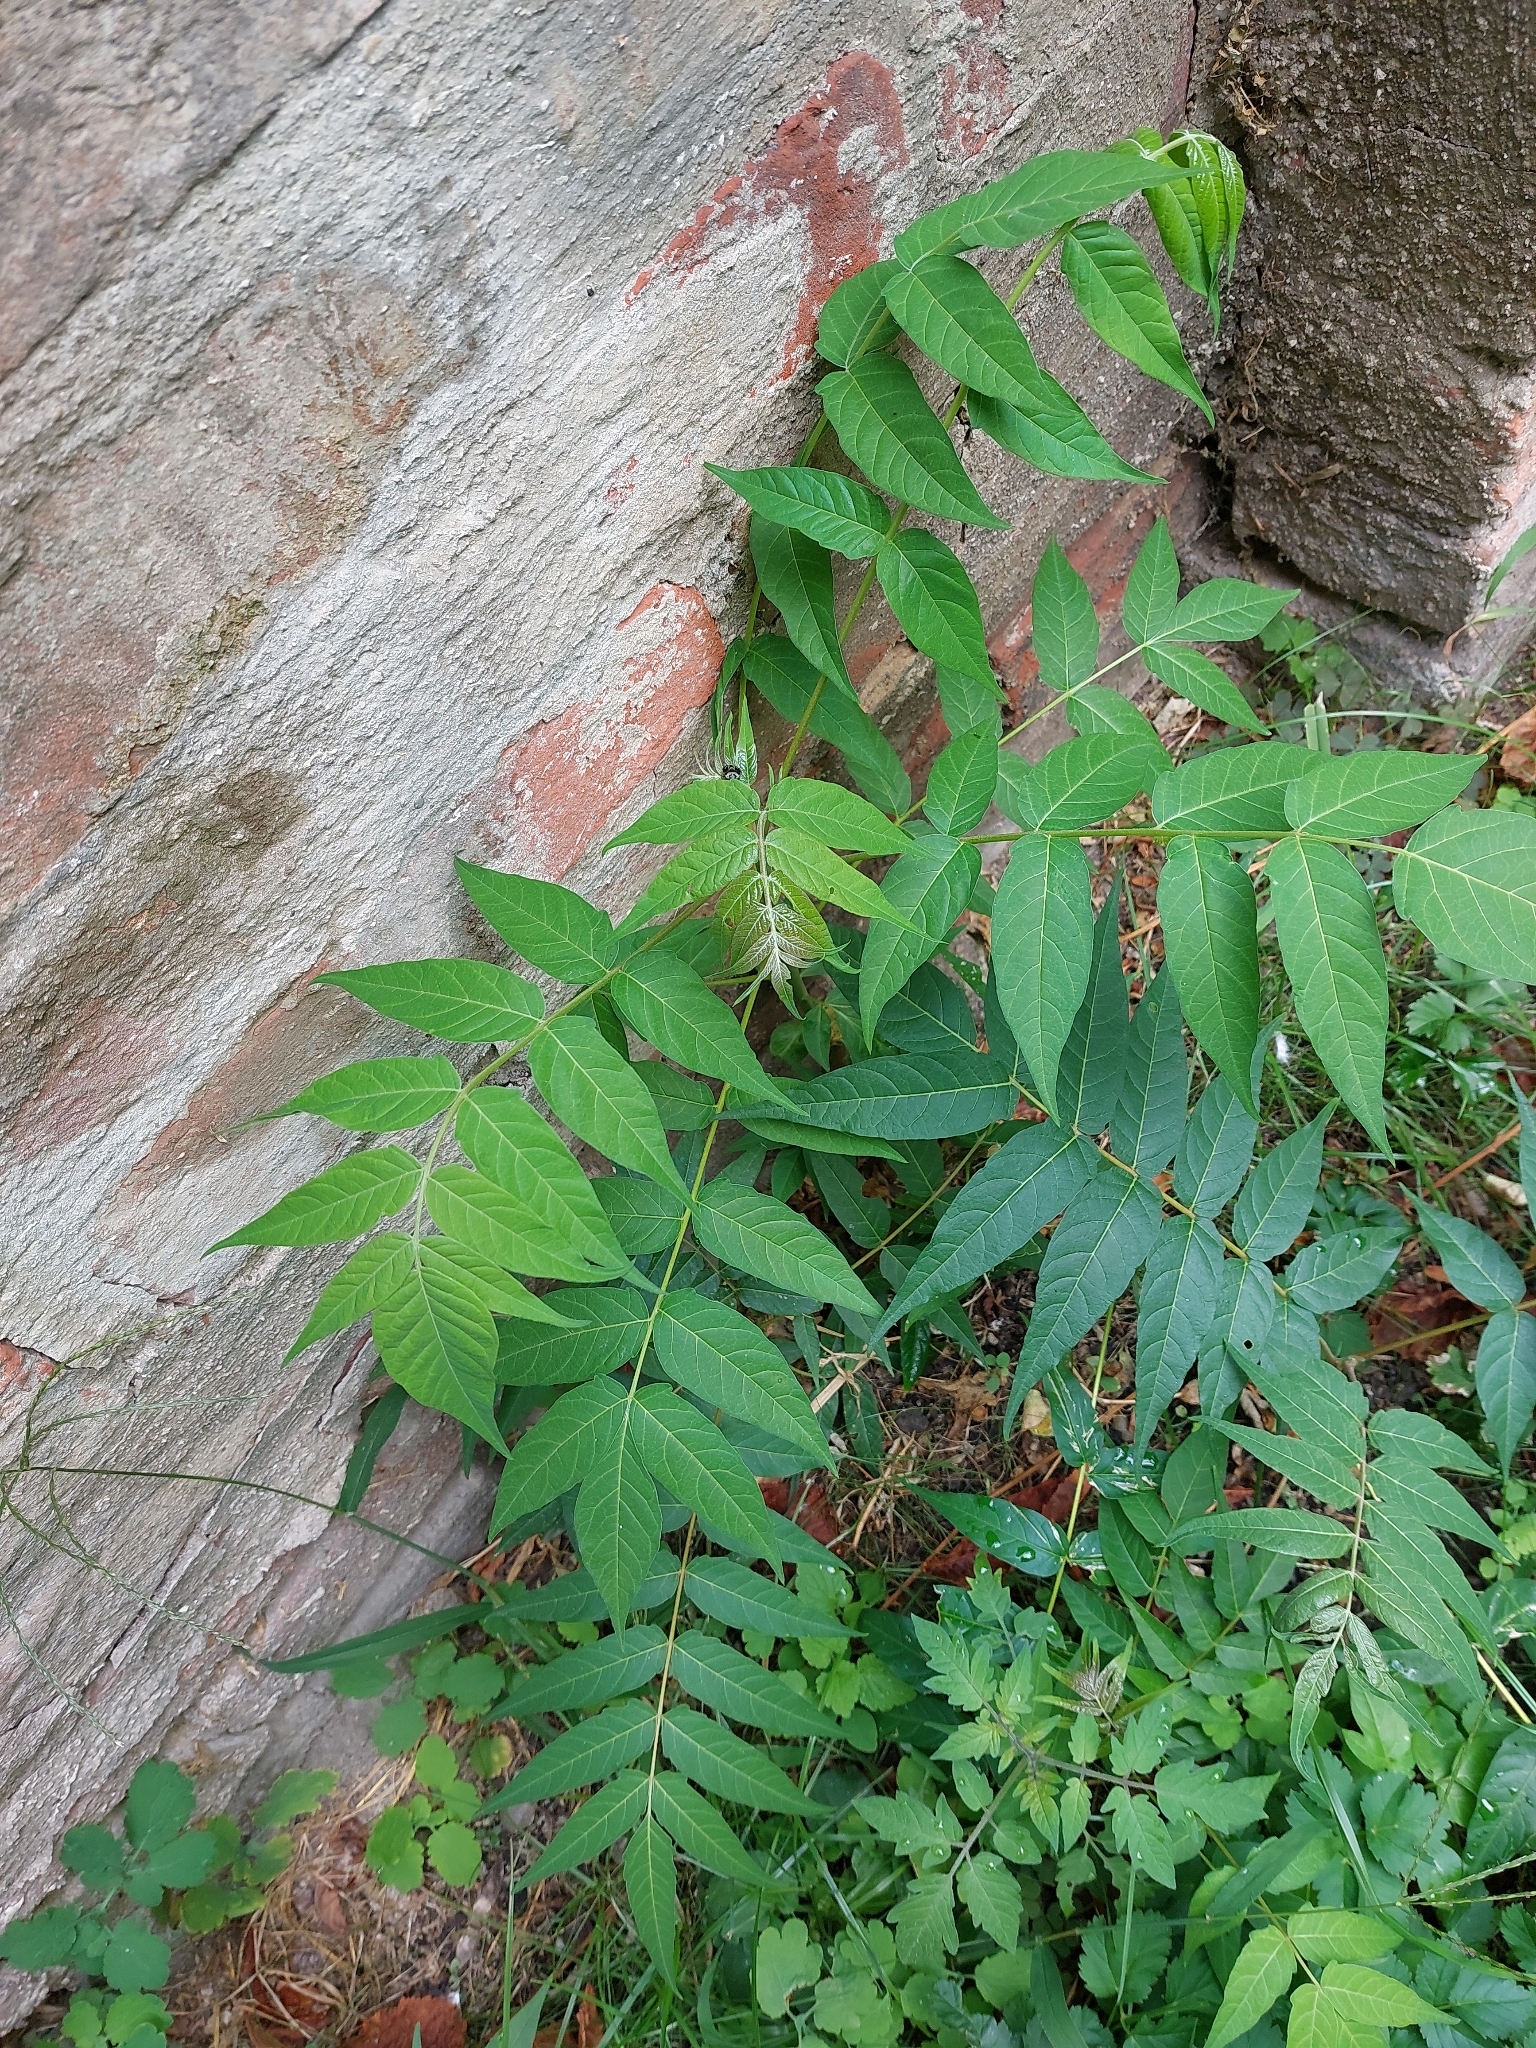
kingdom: Plantae
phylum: Tracheophyta
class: Magnoliopsida
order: Sapindales
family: Simaroubaceae
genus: Ailanthus
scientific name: Ailanthus altissima
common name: Tree-of-heaven
